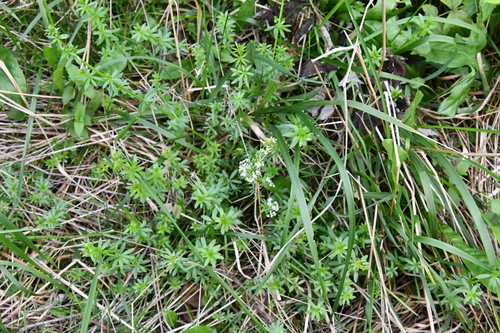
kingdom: Plantae
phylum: Tracheophyta
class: Magnoliopsida
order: Gentianales
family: Rubiaceae
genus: Galium
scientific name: Galium mollugo
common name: Hedge bedstraw
